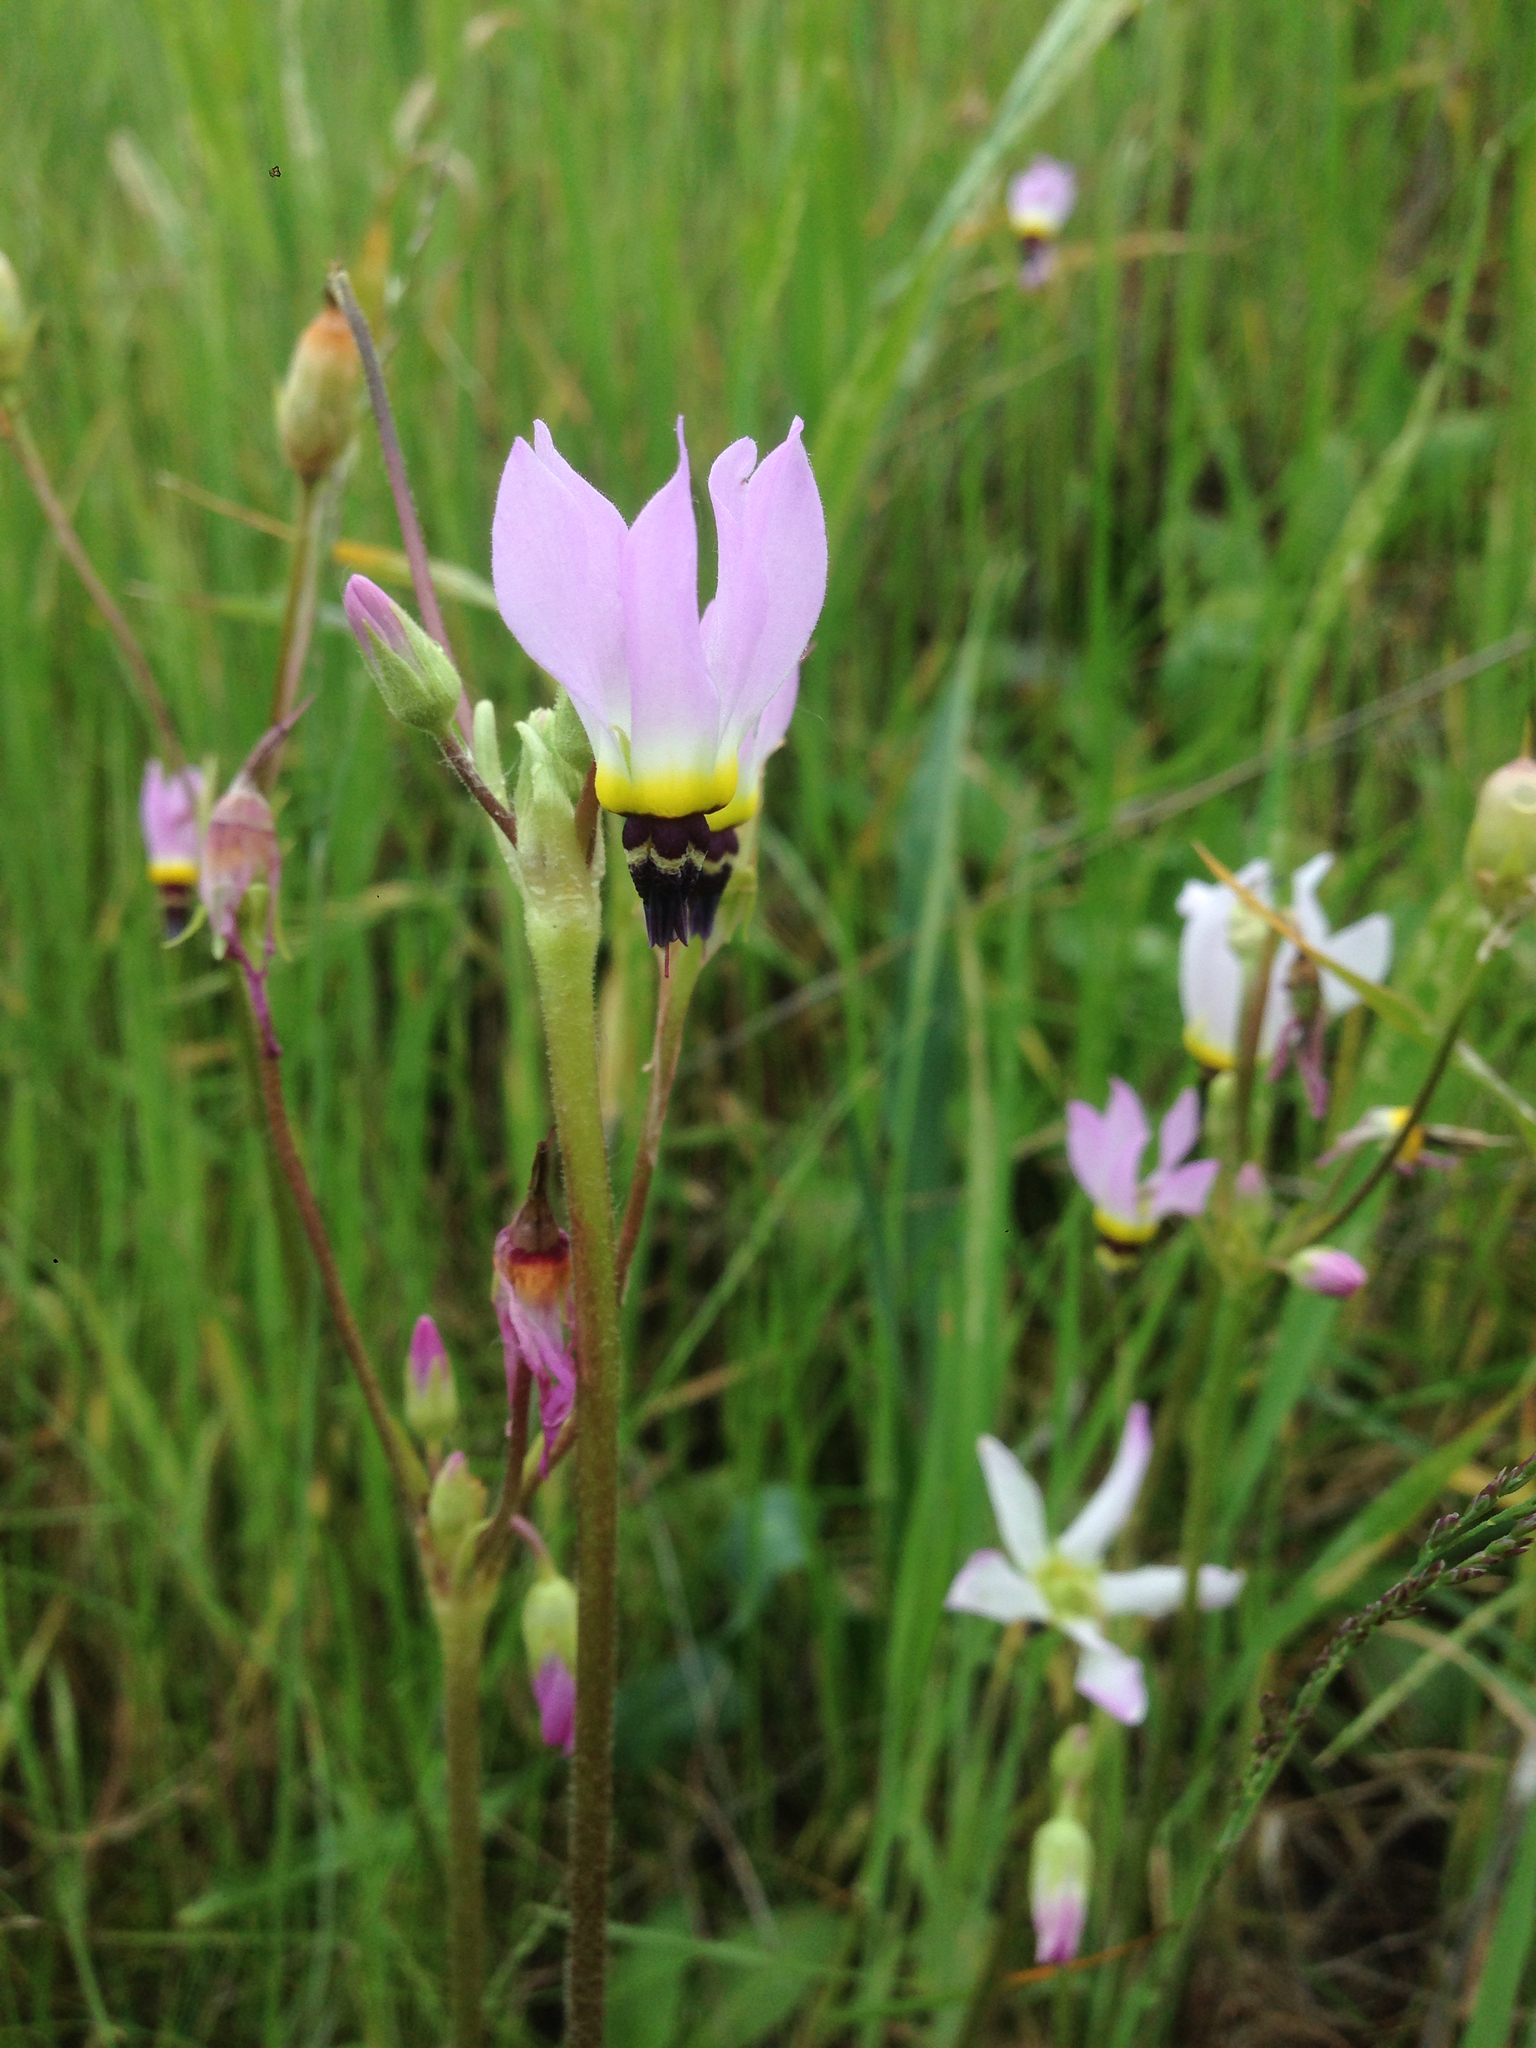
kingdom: Plantae
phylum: Tracheophyta
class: Magnoliopsida
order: Ericales
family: Primulaceae
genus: Dodecatheon
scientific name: Dodecatheon clevelandii
